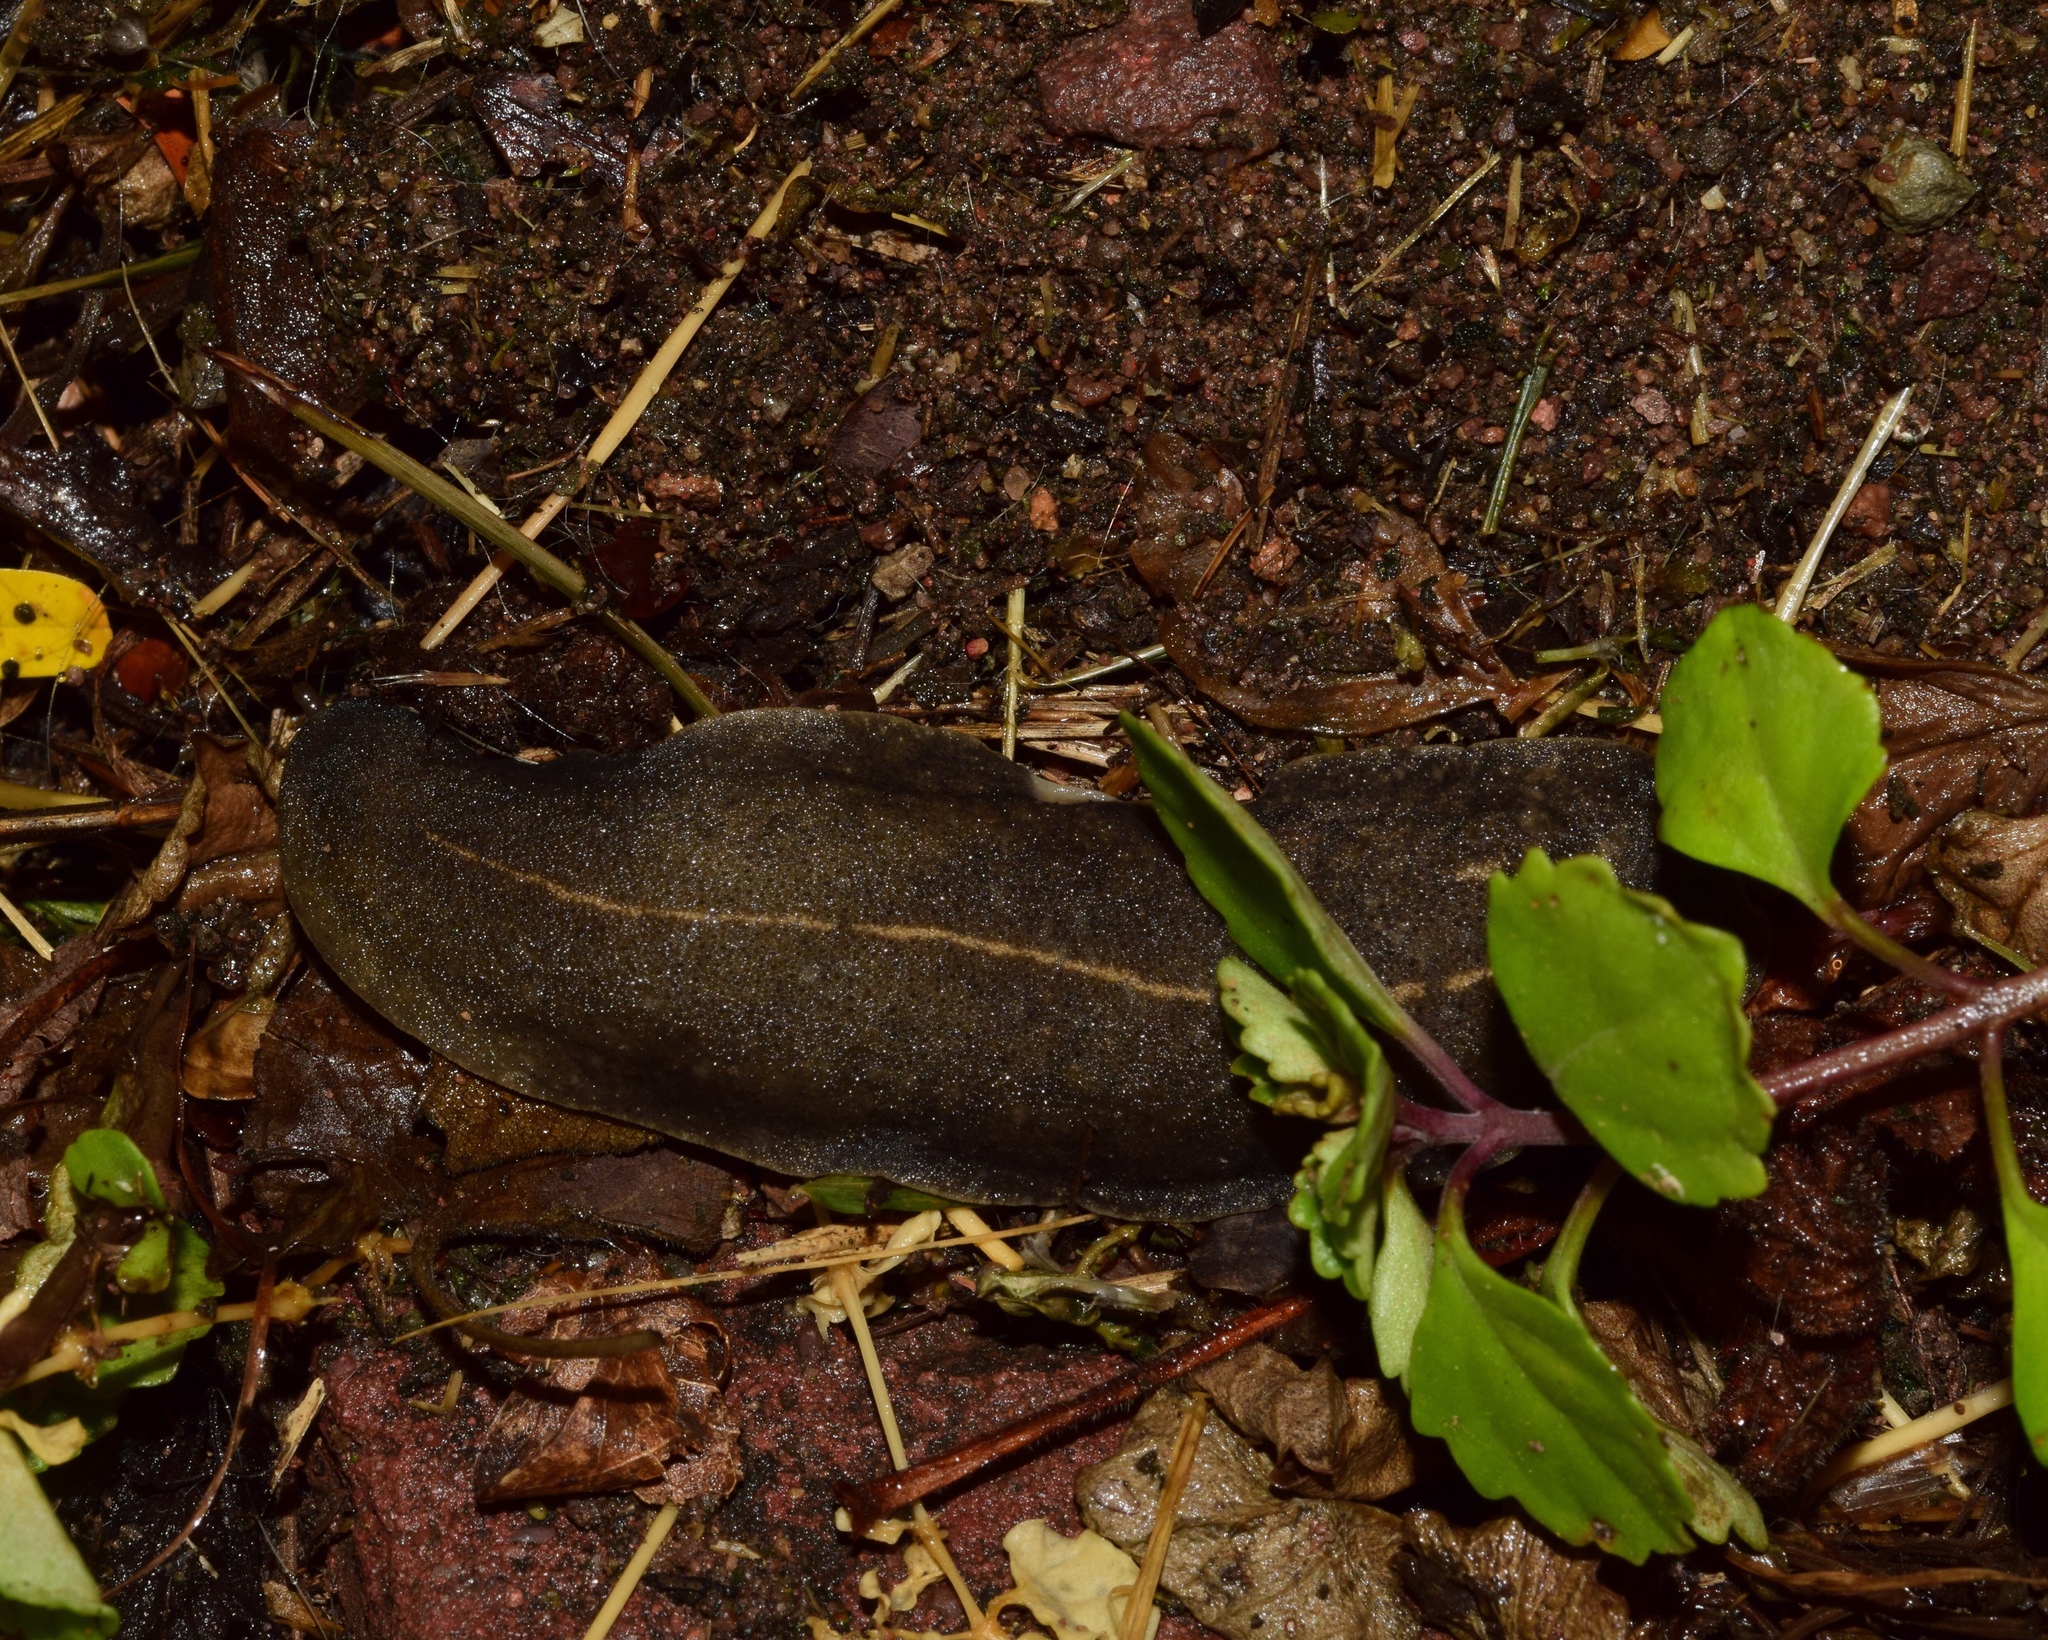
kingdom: Animalia
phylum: Mollusca
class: Gastropoda
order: Systellommatophora
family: Veronicellidae
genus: Laevicaulis
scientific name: Laevicaulis alte
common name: Tropical leatherleaf
